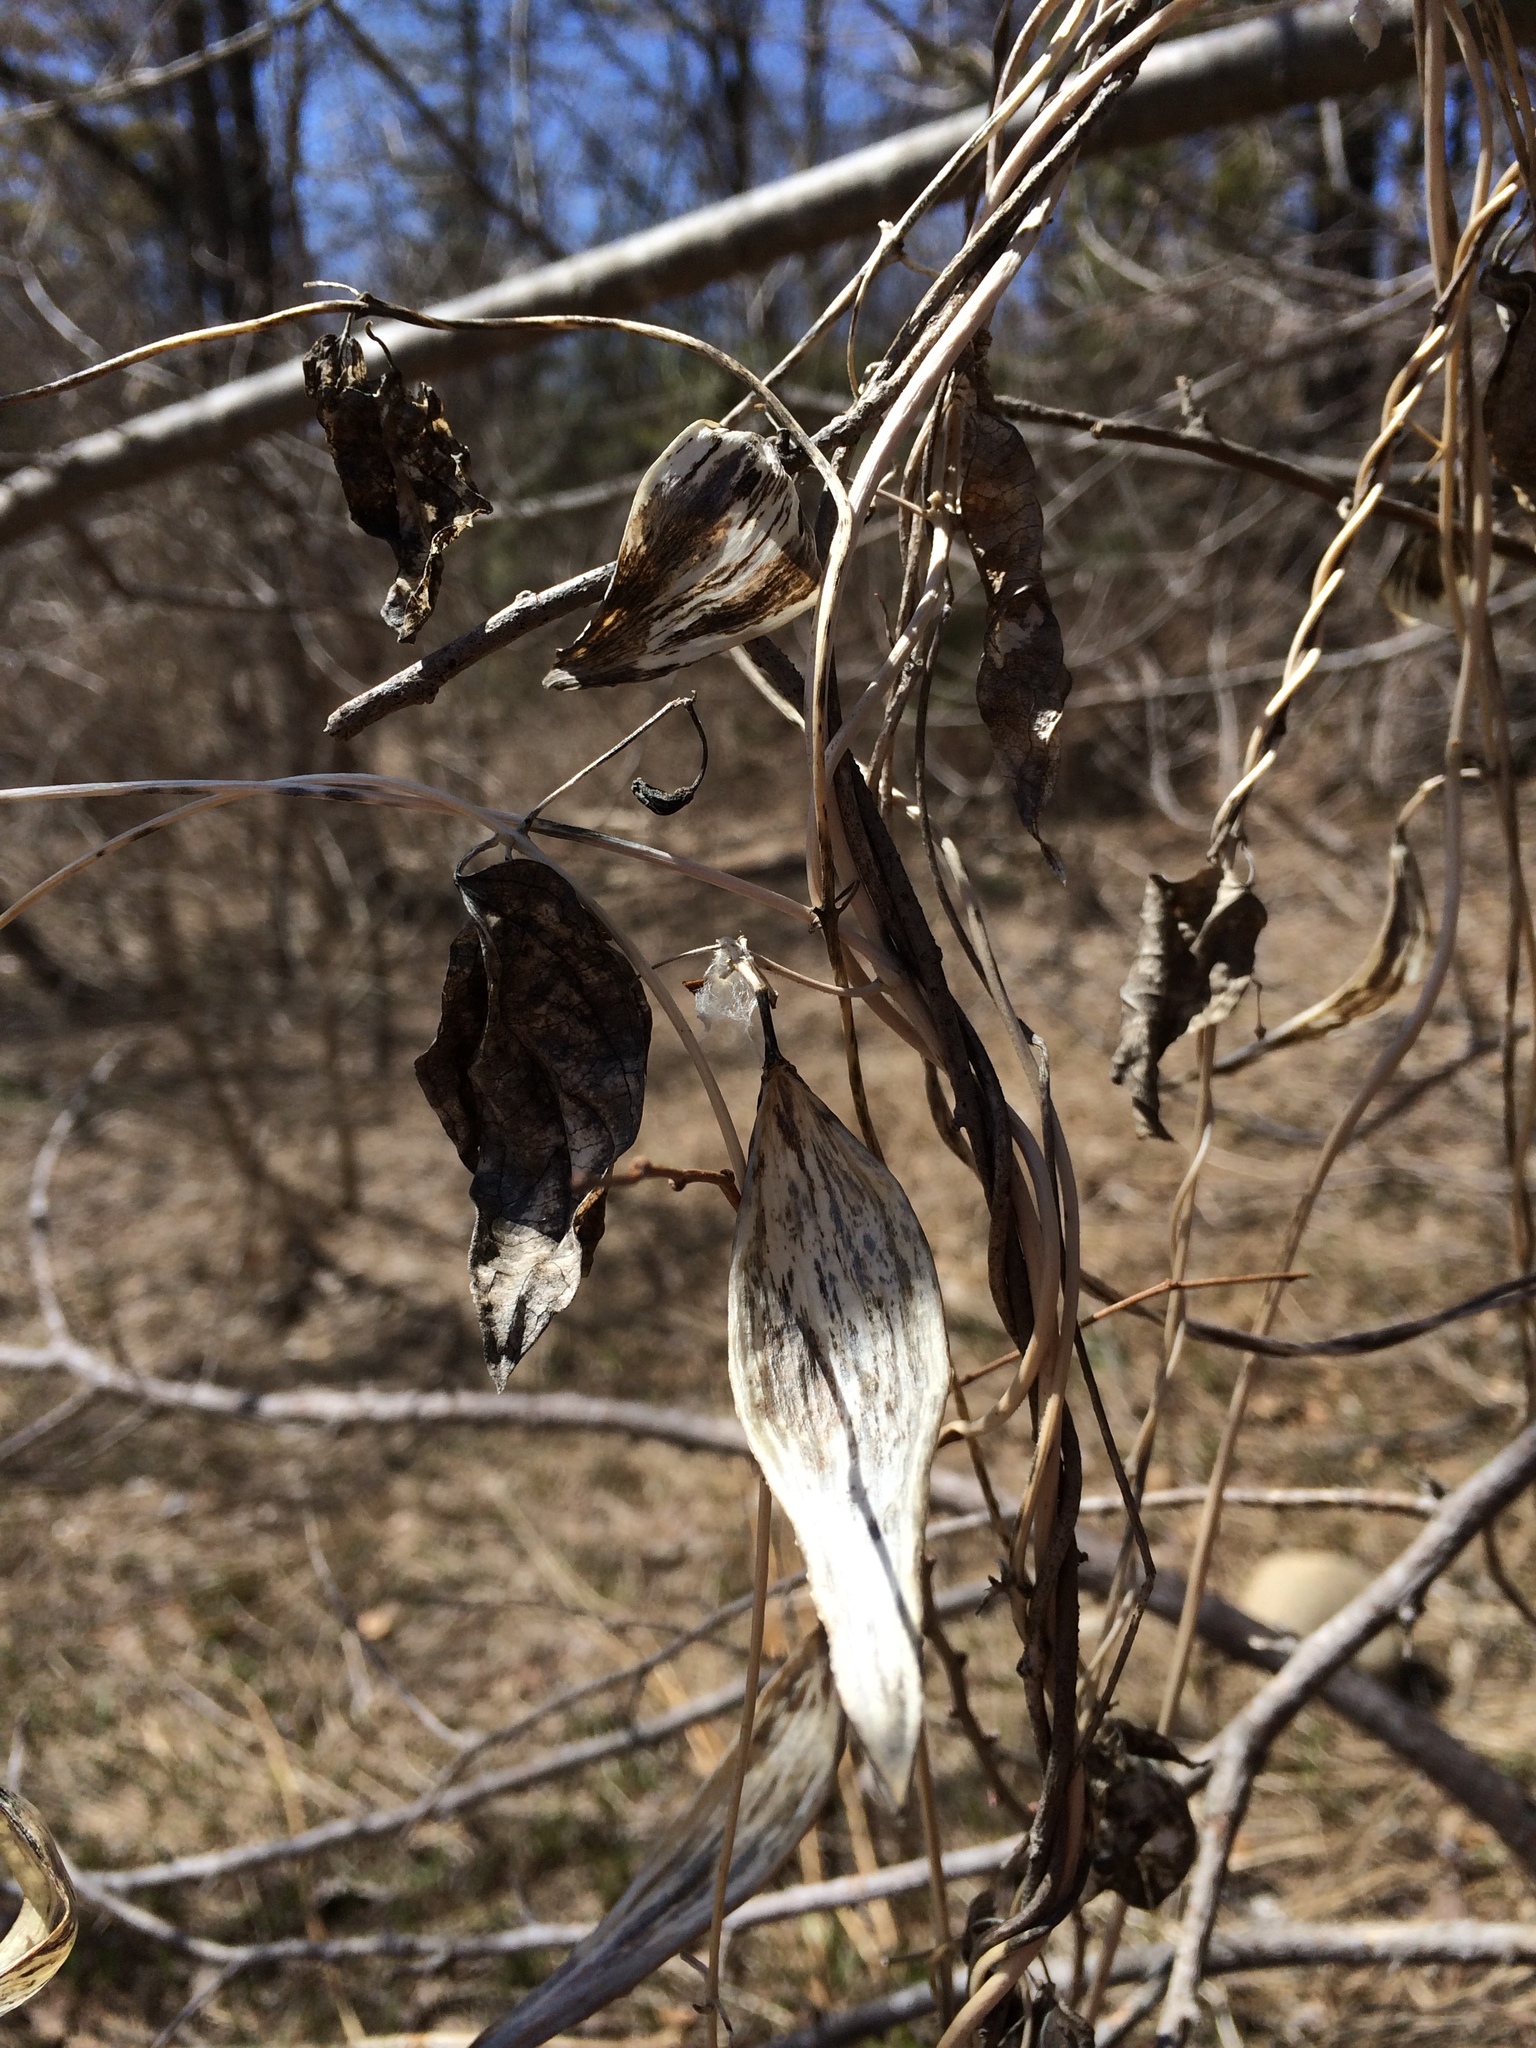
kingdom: Plantae
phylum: Tracheophyta
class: Magnoliopsida
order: Gentianales
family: Apocynaceae
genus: Vincetoxicum
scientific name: Vincetoxicum nigrum
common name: Black swallow-wort
